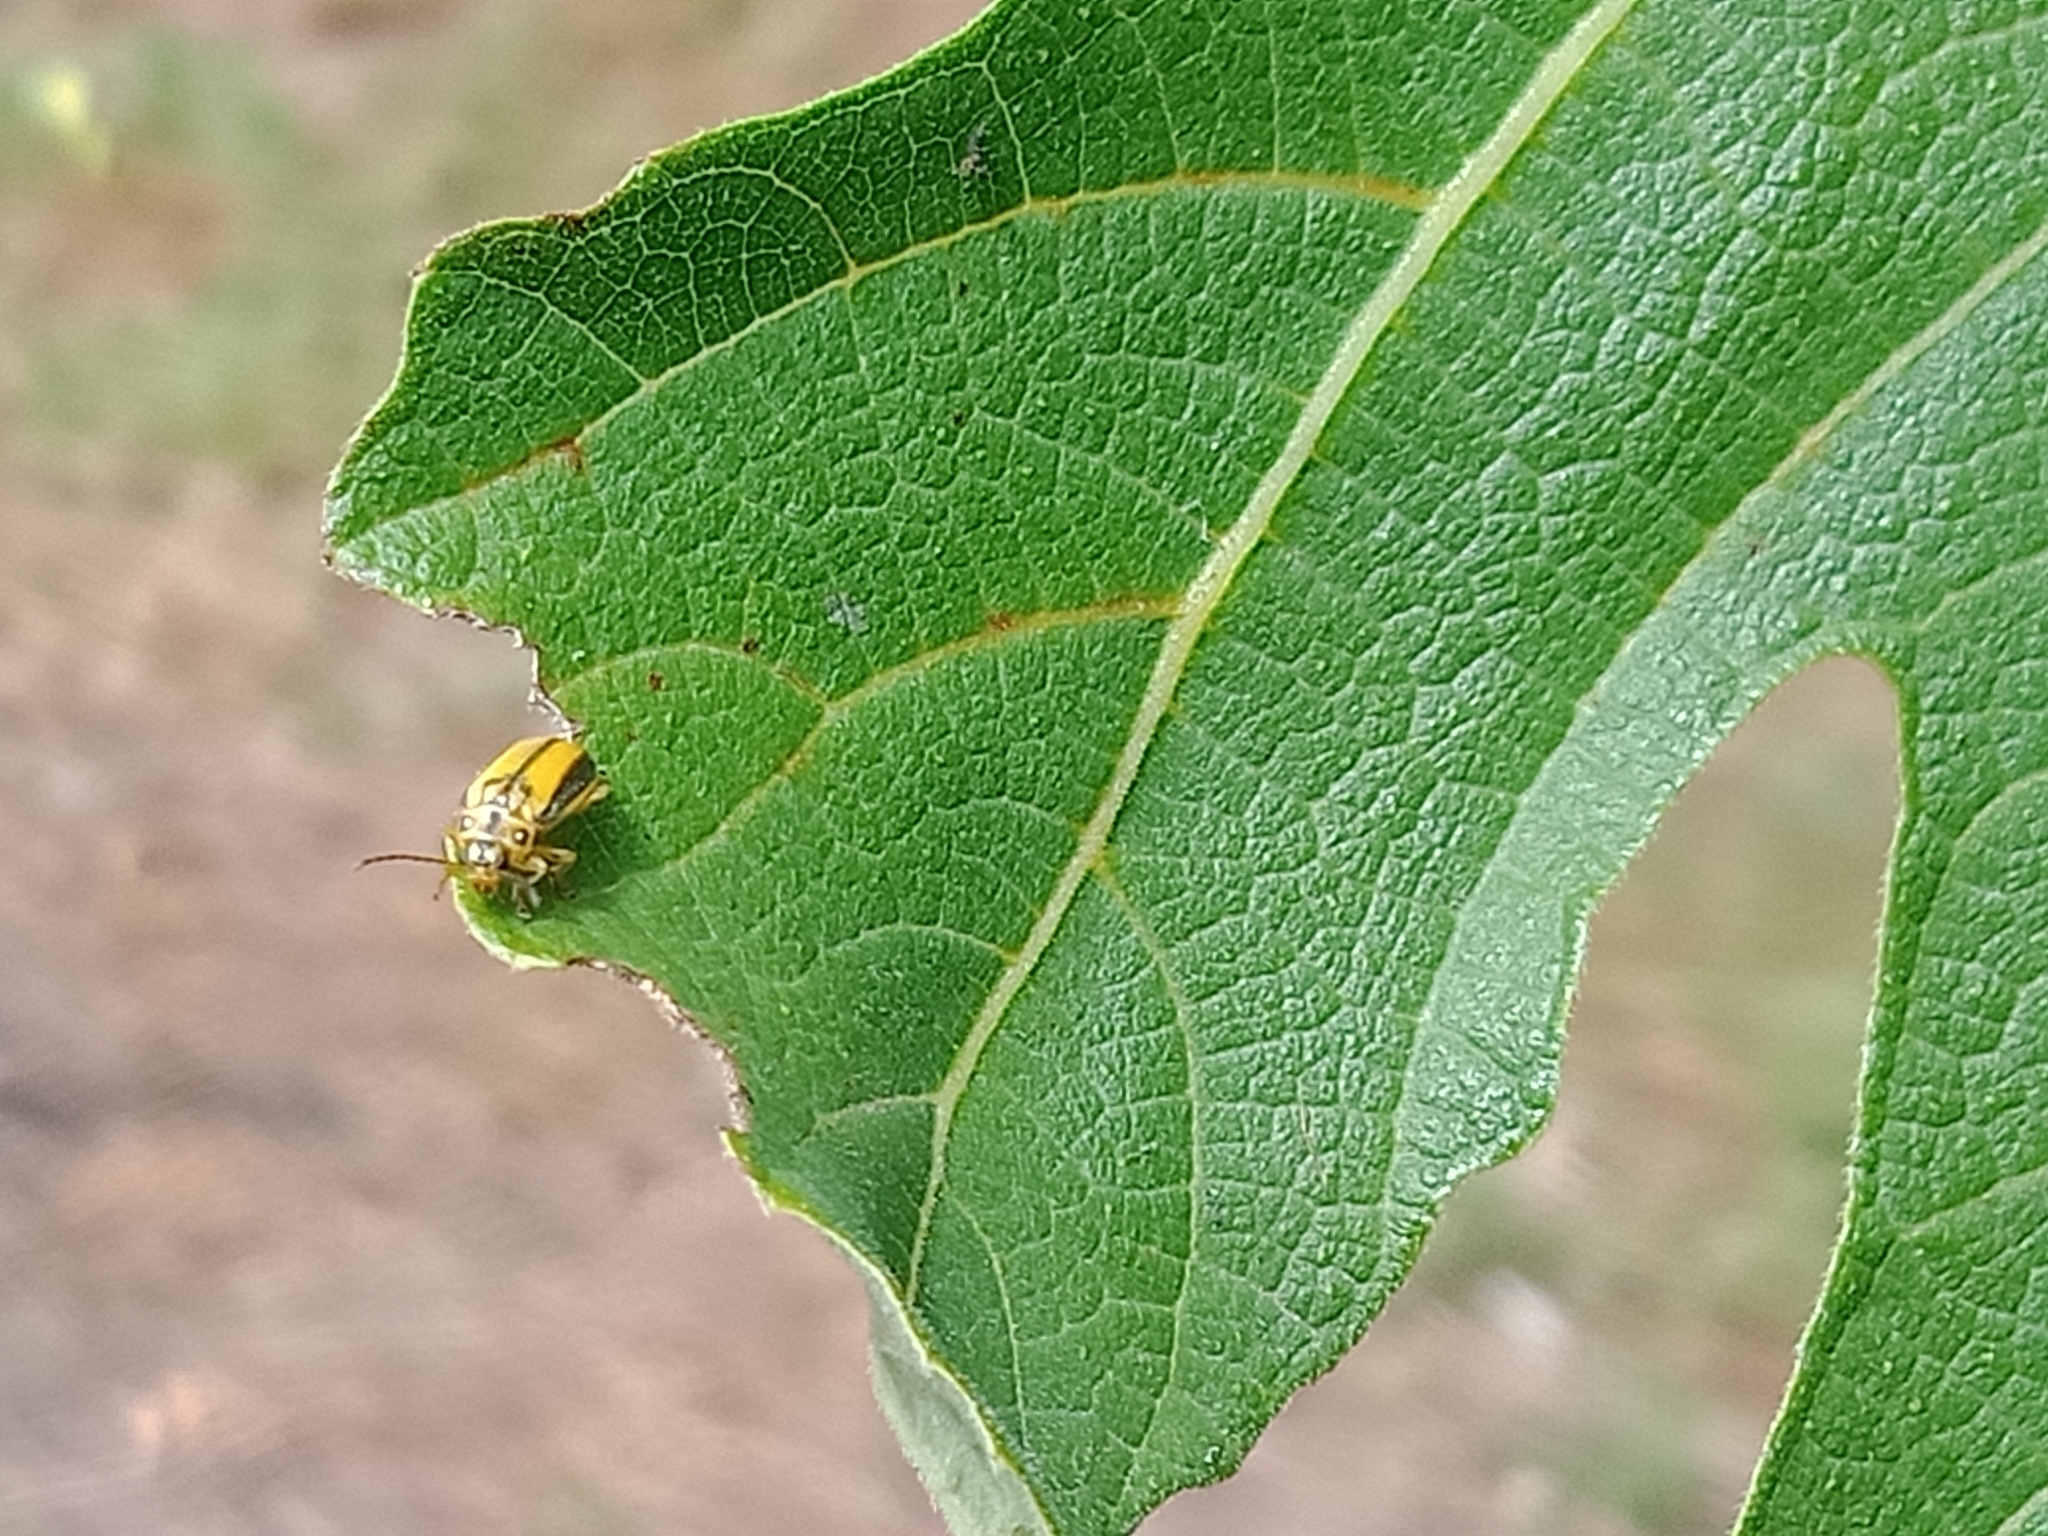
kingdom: Animalia
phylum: Arthropoda
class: Insecta
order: Coleoptera
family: Chrysomelidae
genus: Xanthogaleruca
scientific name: Xanthogaleruca luteola
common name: Elm leaf beetle
